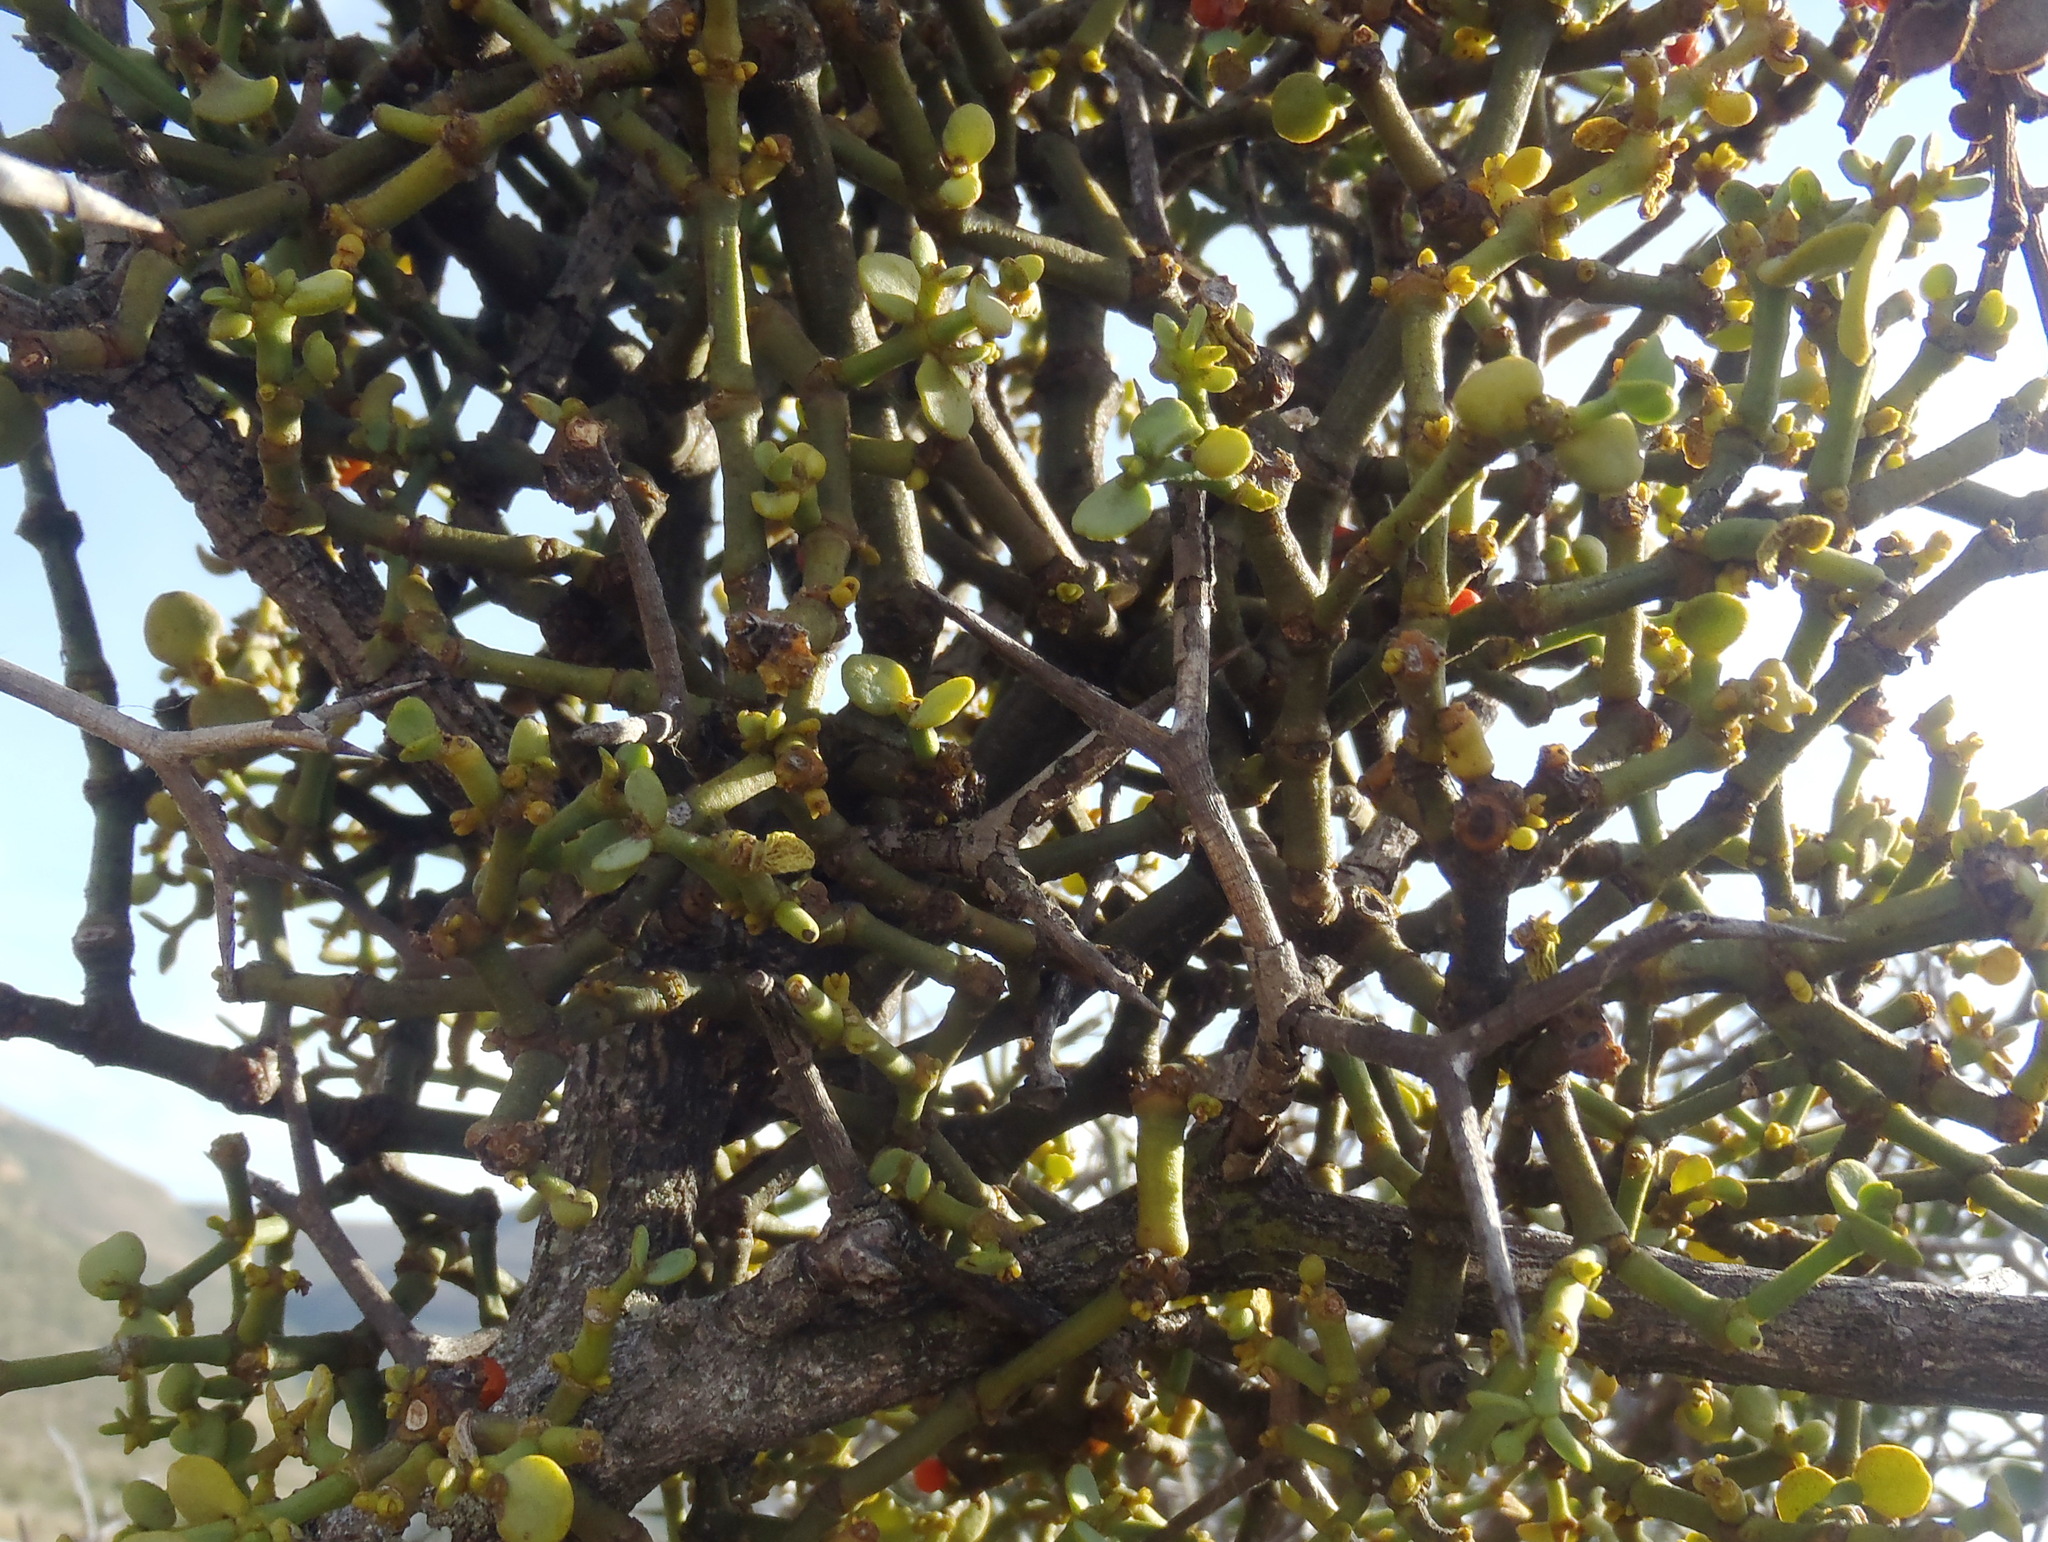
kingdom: Plantae
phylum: Tracheophyta
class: Magnoliopsida
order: Santalales
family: Viscaceae
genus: Viscum
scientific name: Viscum rotundifolium
